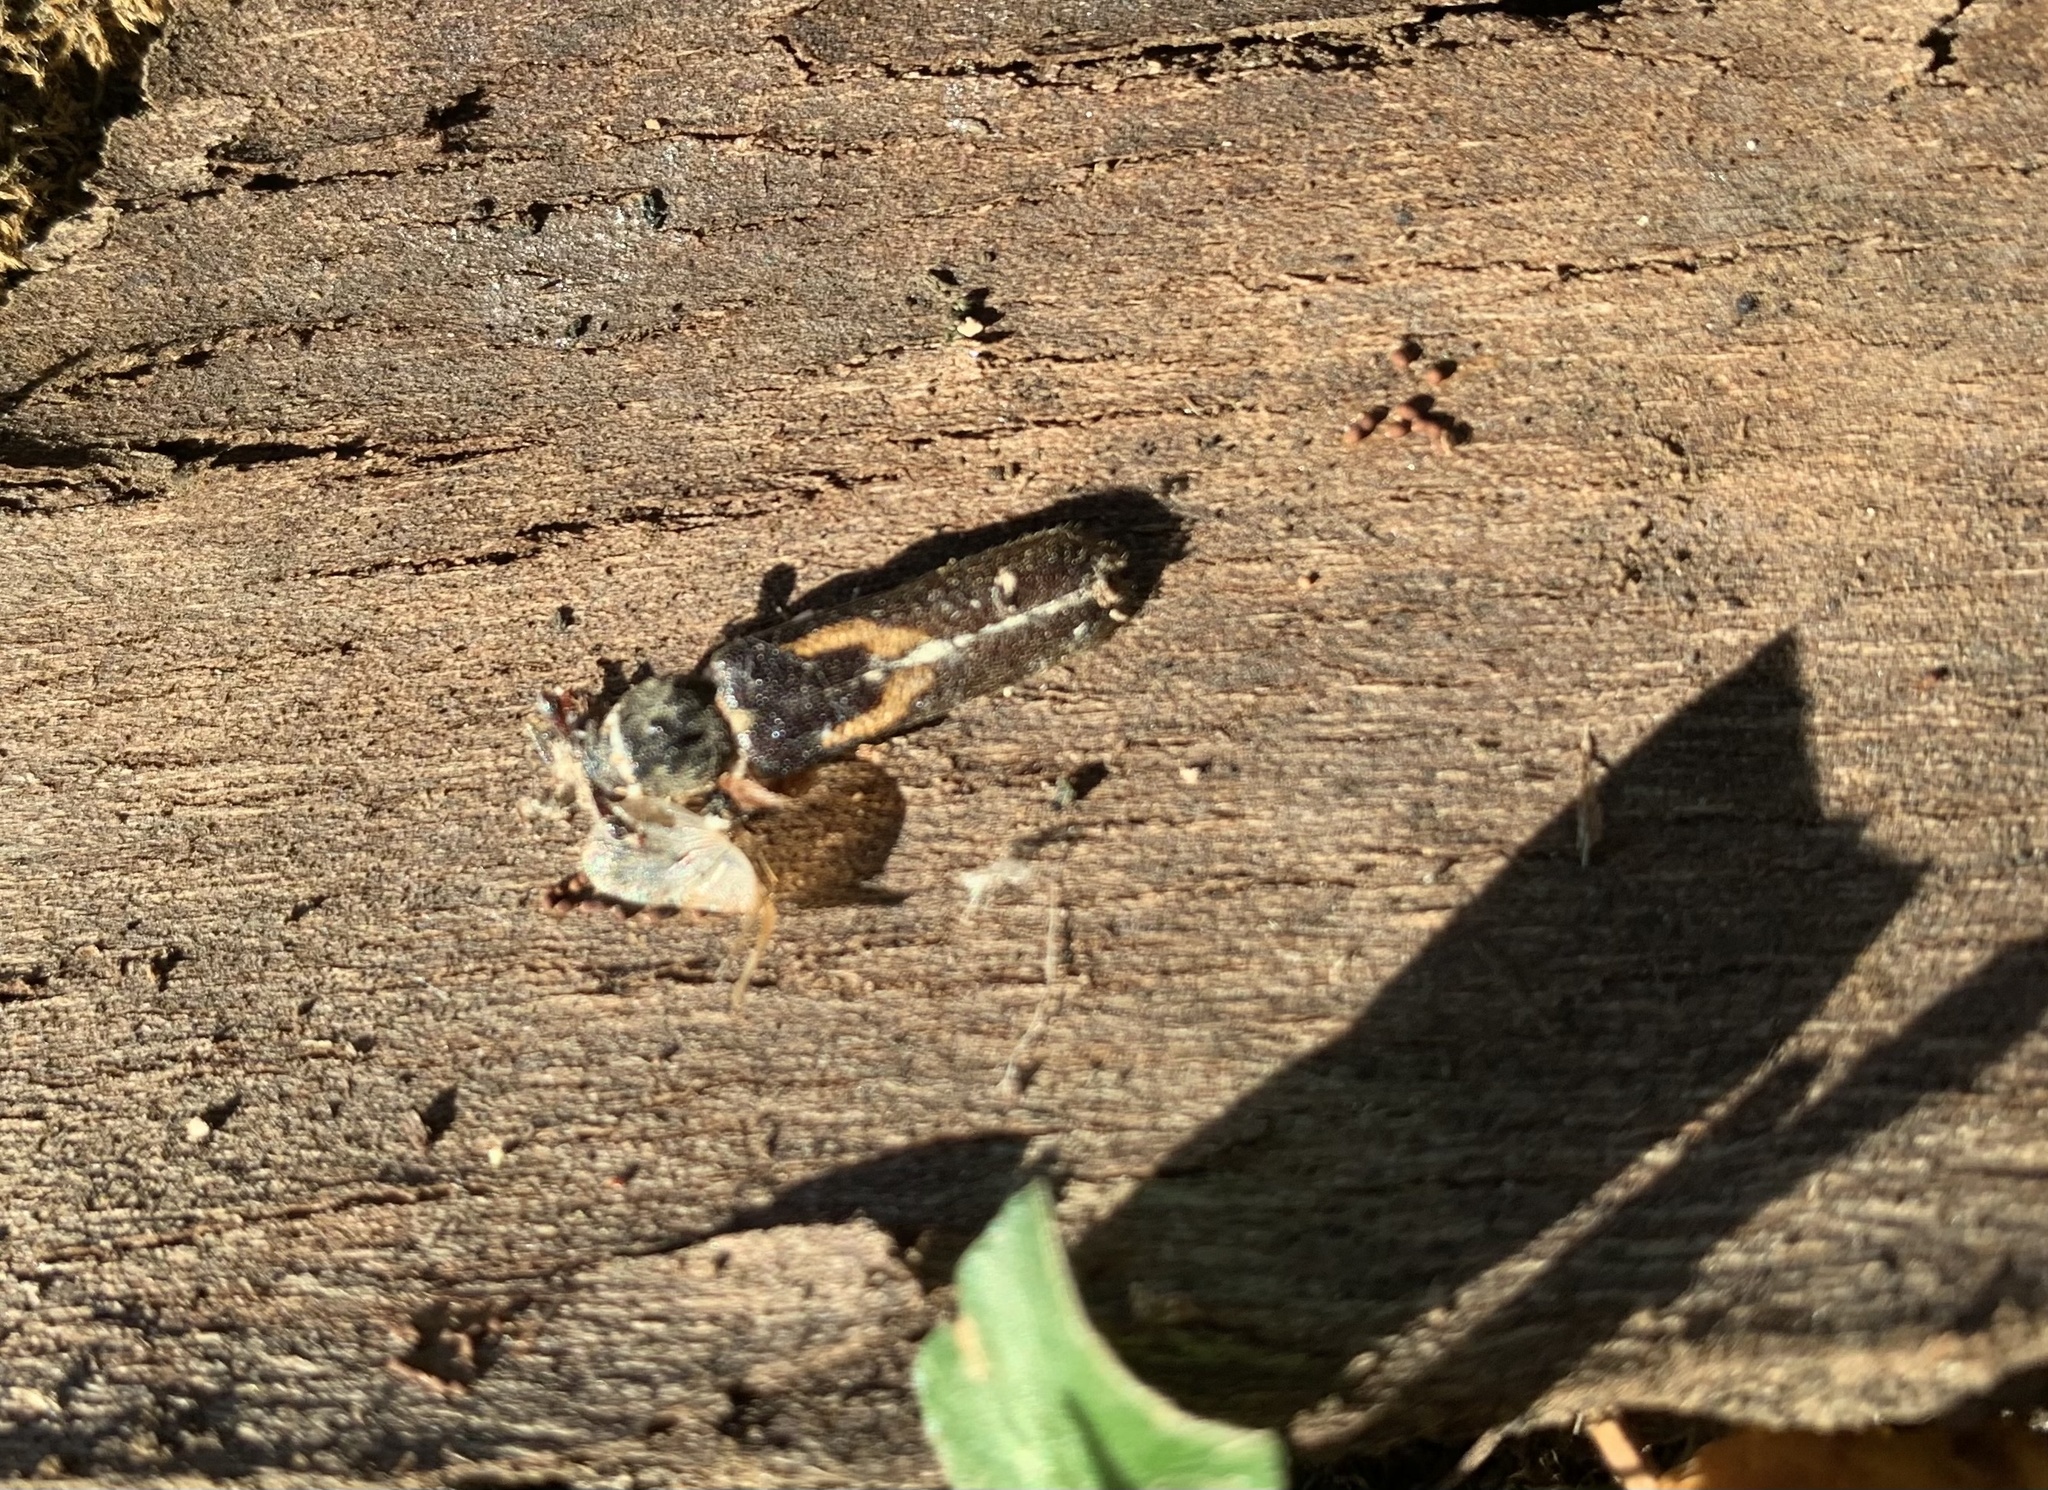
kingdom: Animalia
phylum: Arthropoda
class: Insecta
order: Coleoptera
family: Cerambycidae
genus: Grammicosum
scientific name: Grammicosum flavofasciatum
